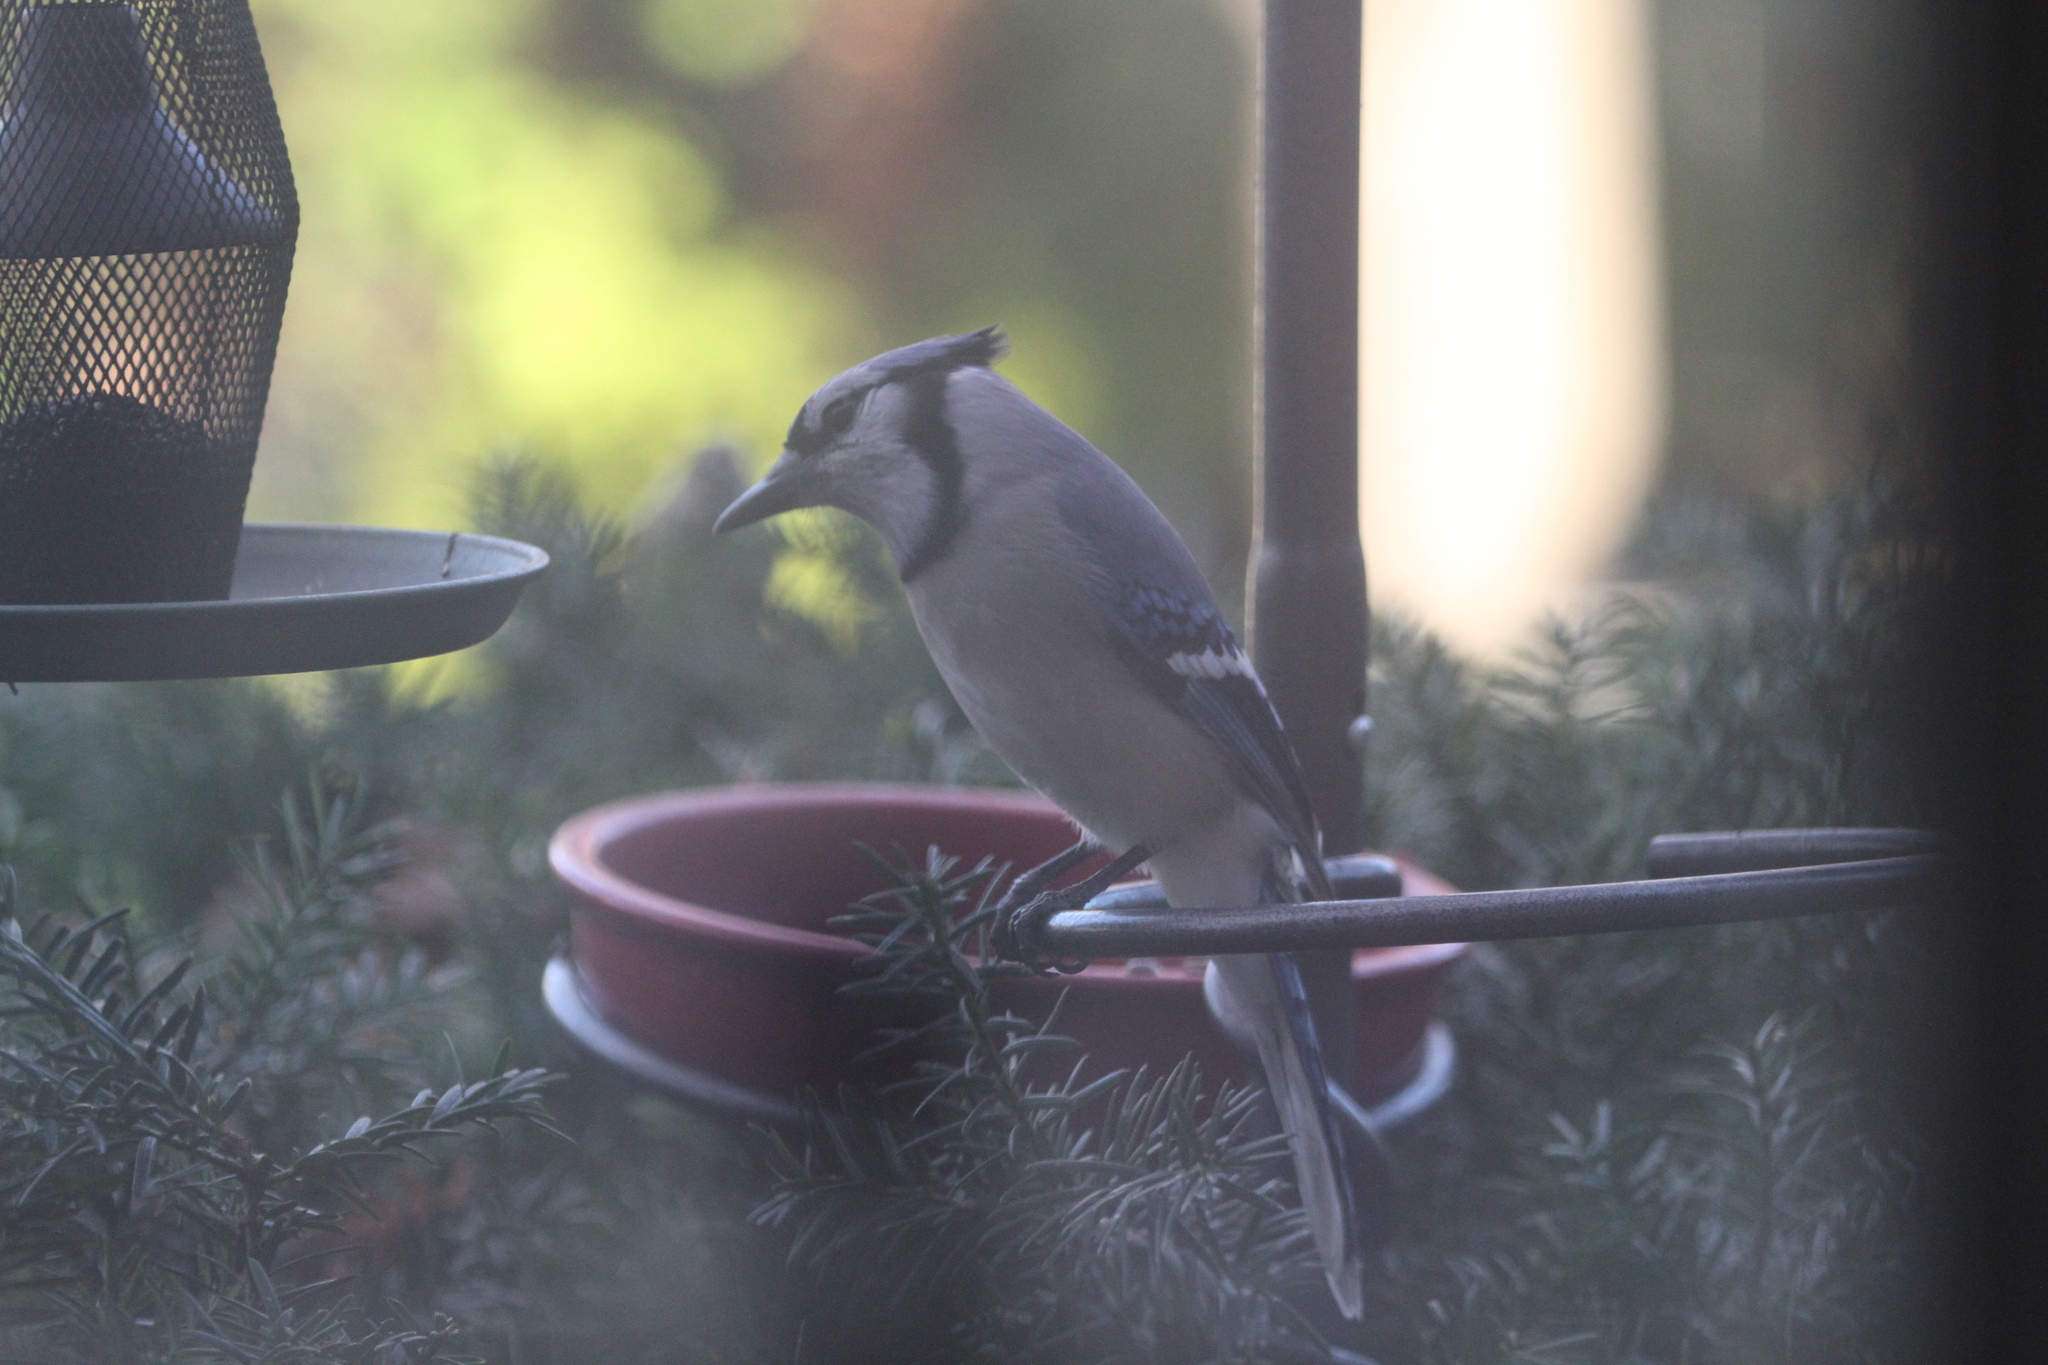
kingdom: Animalia
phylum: Chordata
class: Aves
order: Passeriformes
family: Corvidae
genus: Cyanocitta
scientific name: Cyanocitta cristata
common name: Blue jay
